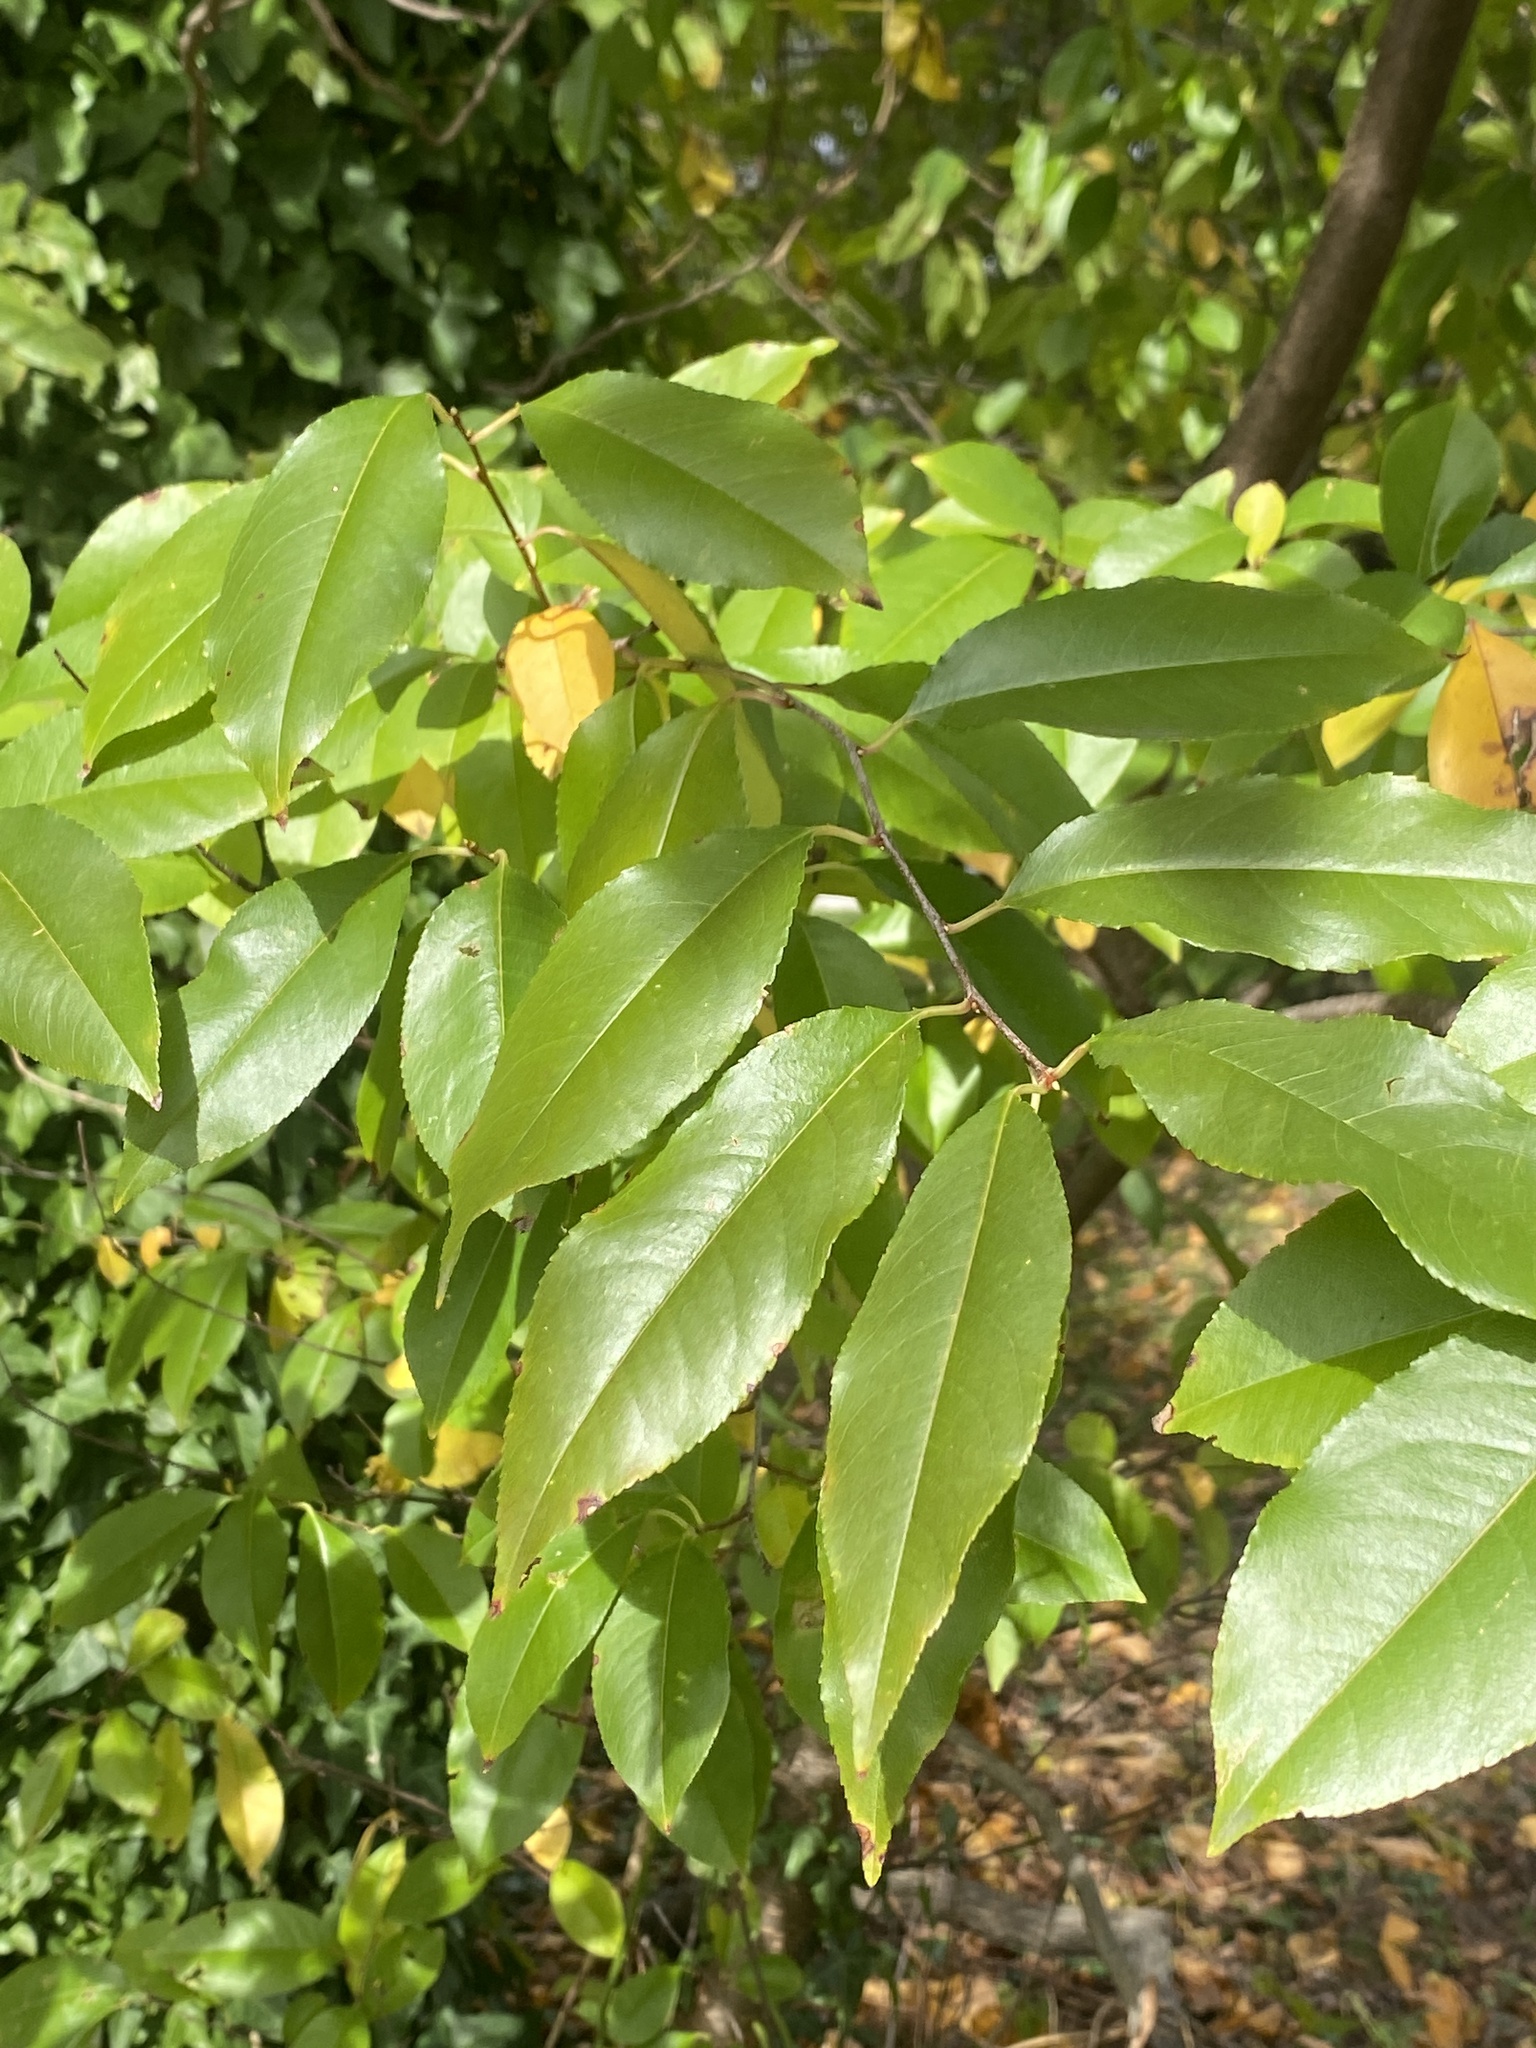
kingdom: Plantae
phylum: Tracheophyta
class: Magnoliopsida
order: Rosales
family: Rosaceae
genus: Prunus
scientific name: Prunus serotina
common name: Black cherry
